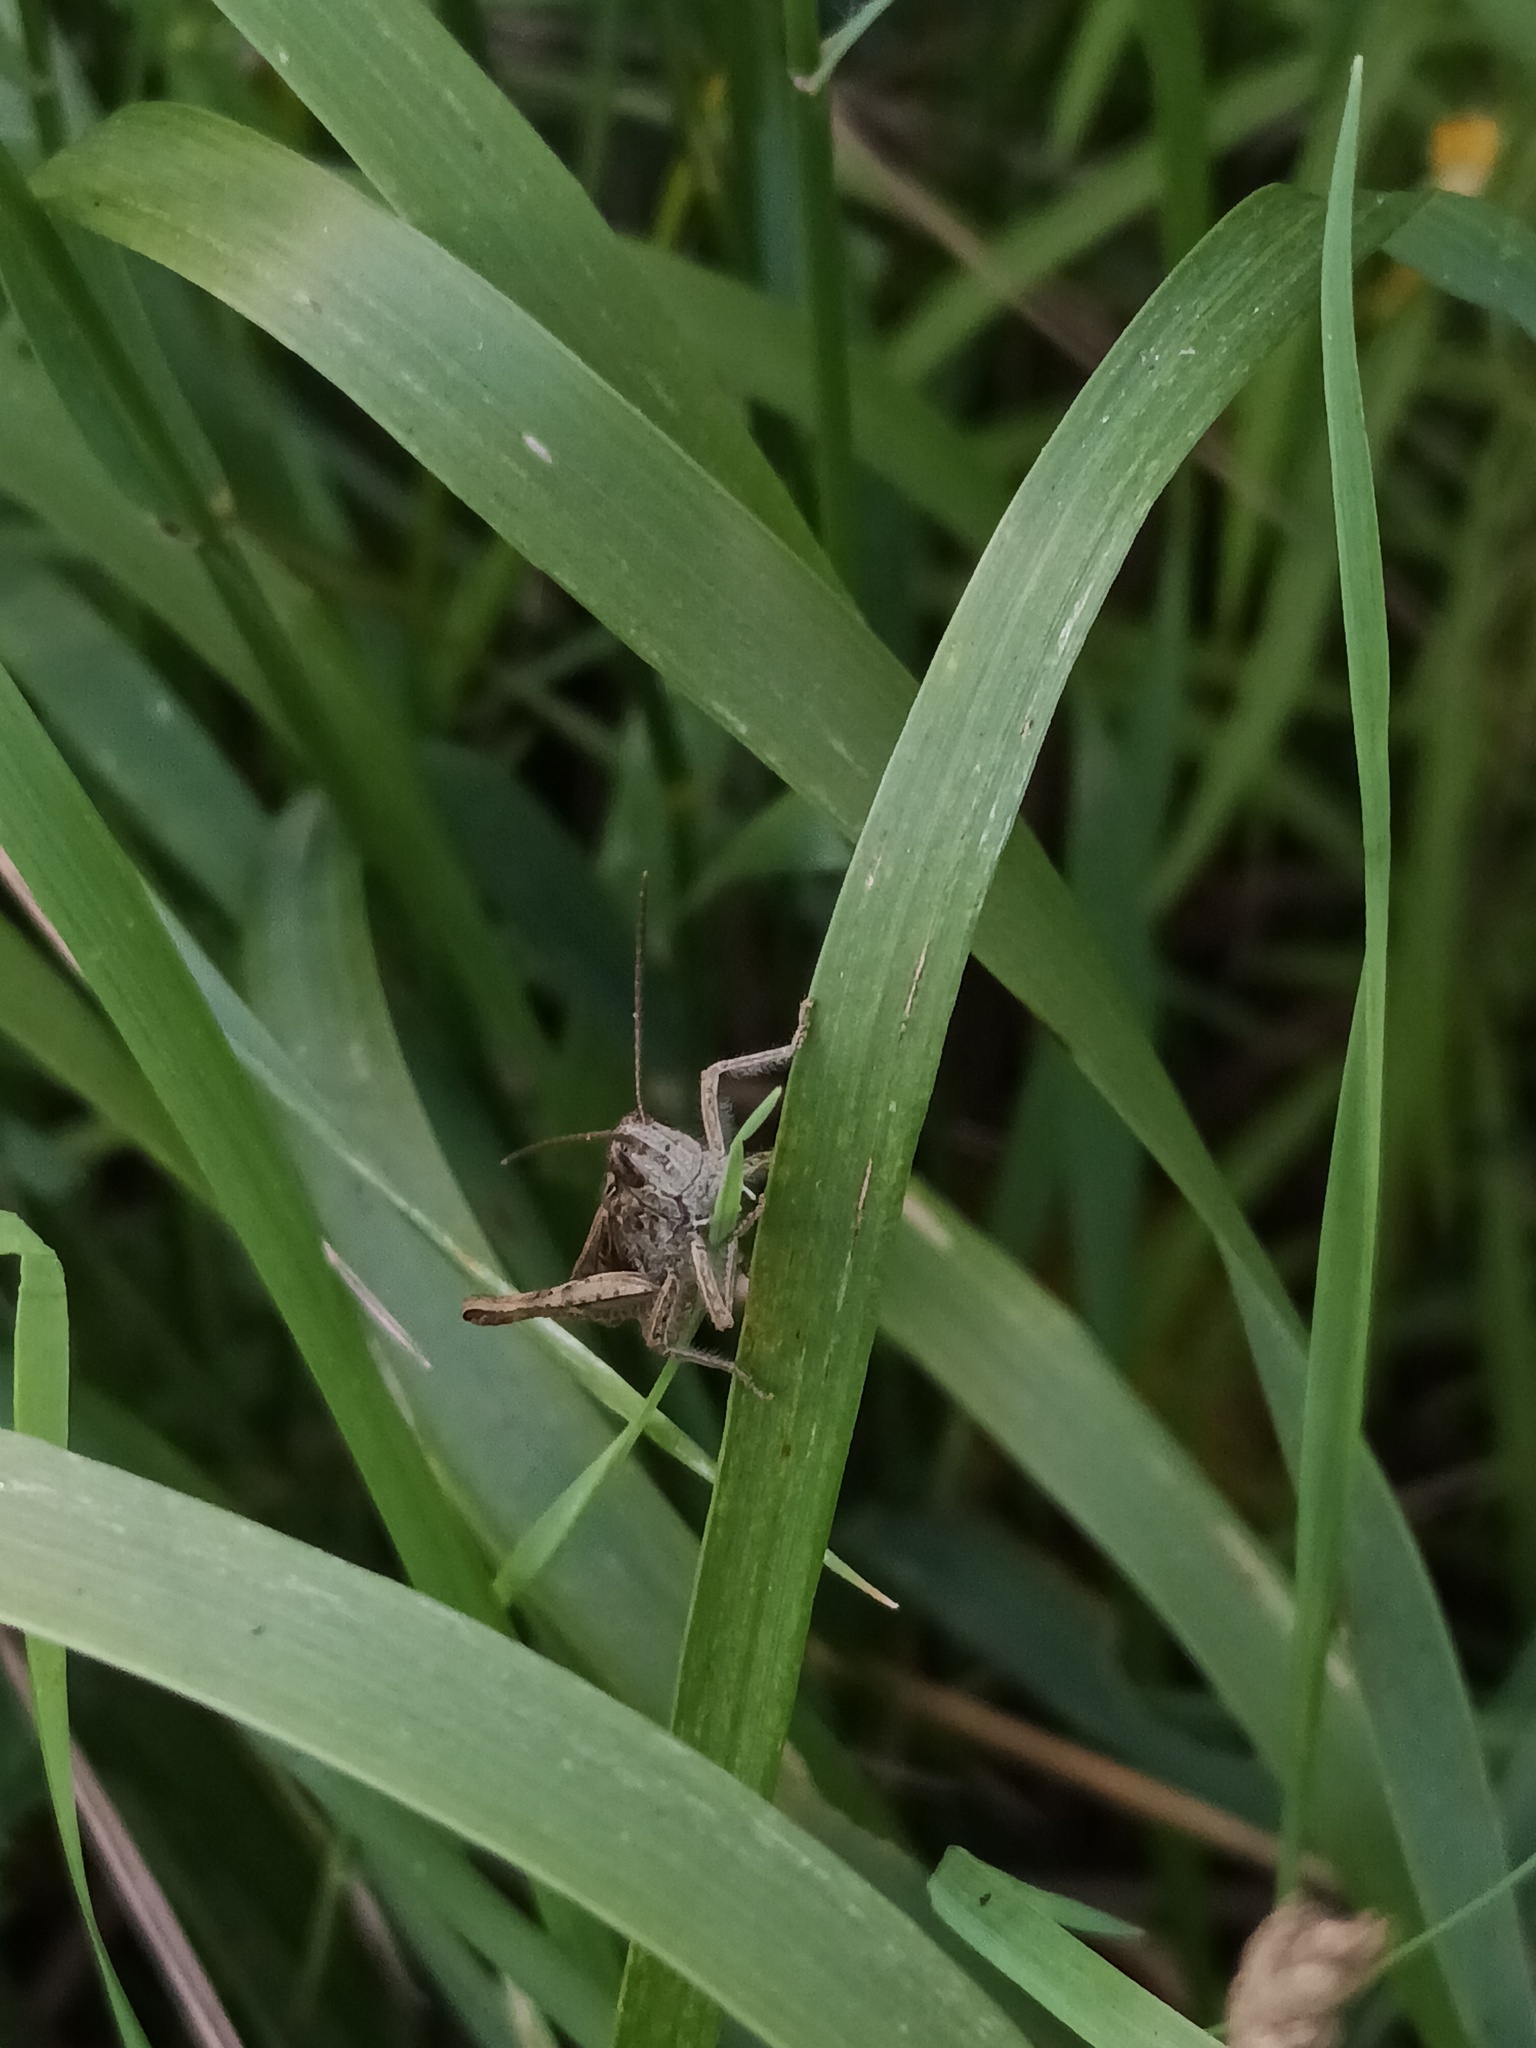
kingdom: Animalia
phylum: Arthropoda
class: Insecta
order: Orthoptera
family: Acrididae
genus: Chorthippus
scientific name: Chorthippus brunneus
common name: Field grasshopper
